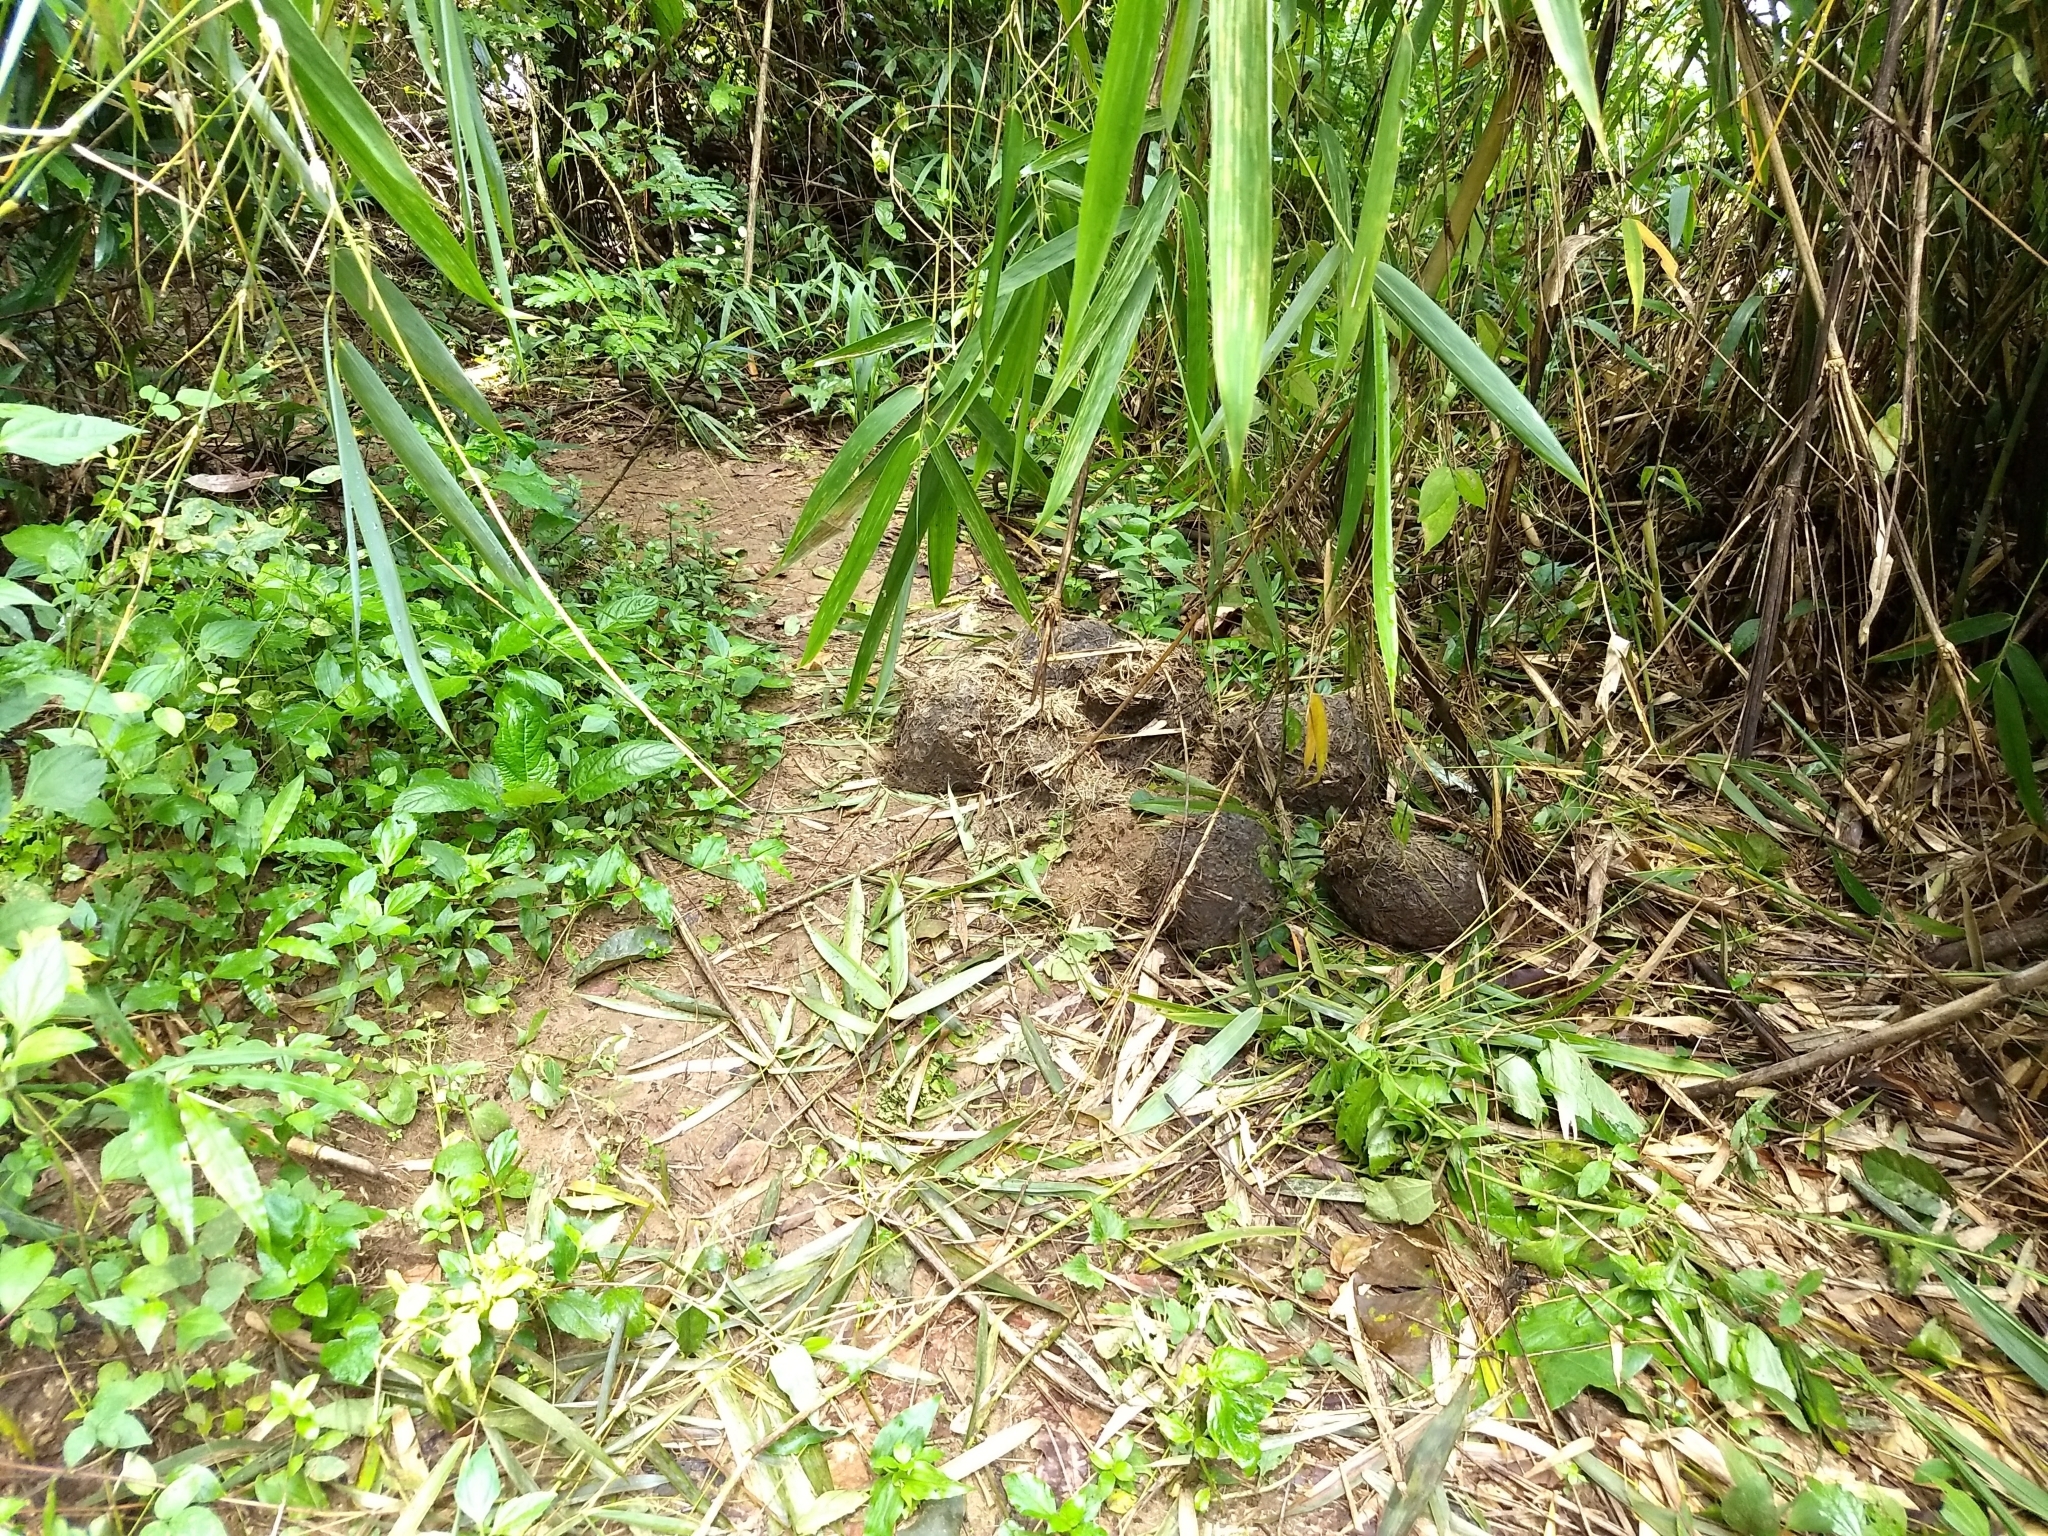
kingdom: Animalia
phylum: Chordata
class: Mammalia
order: Proboscidea
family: Elephantidae
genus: Elephas
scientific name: Elephas maximus
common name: Asian elephant
